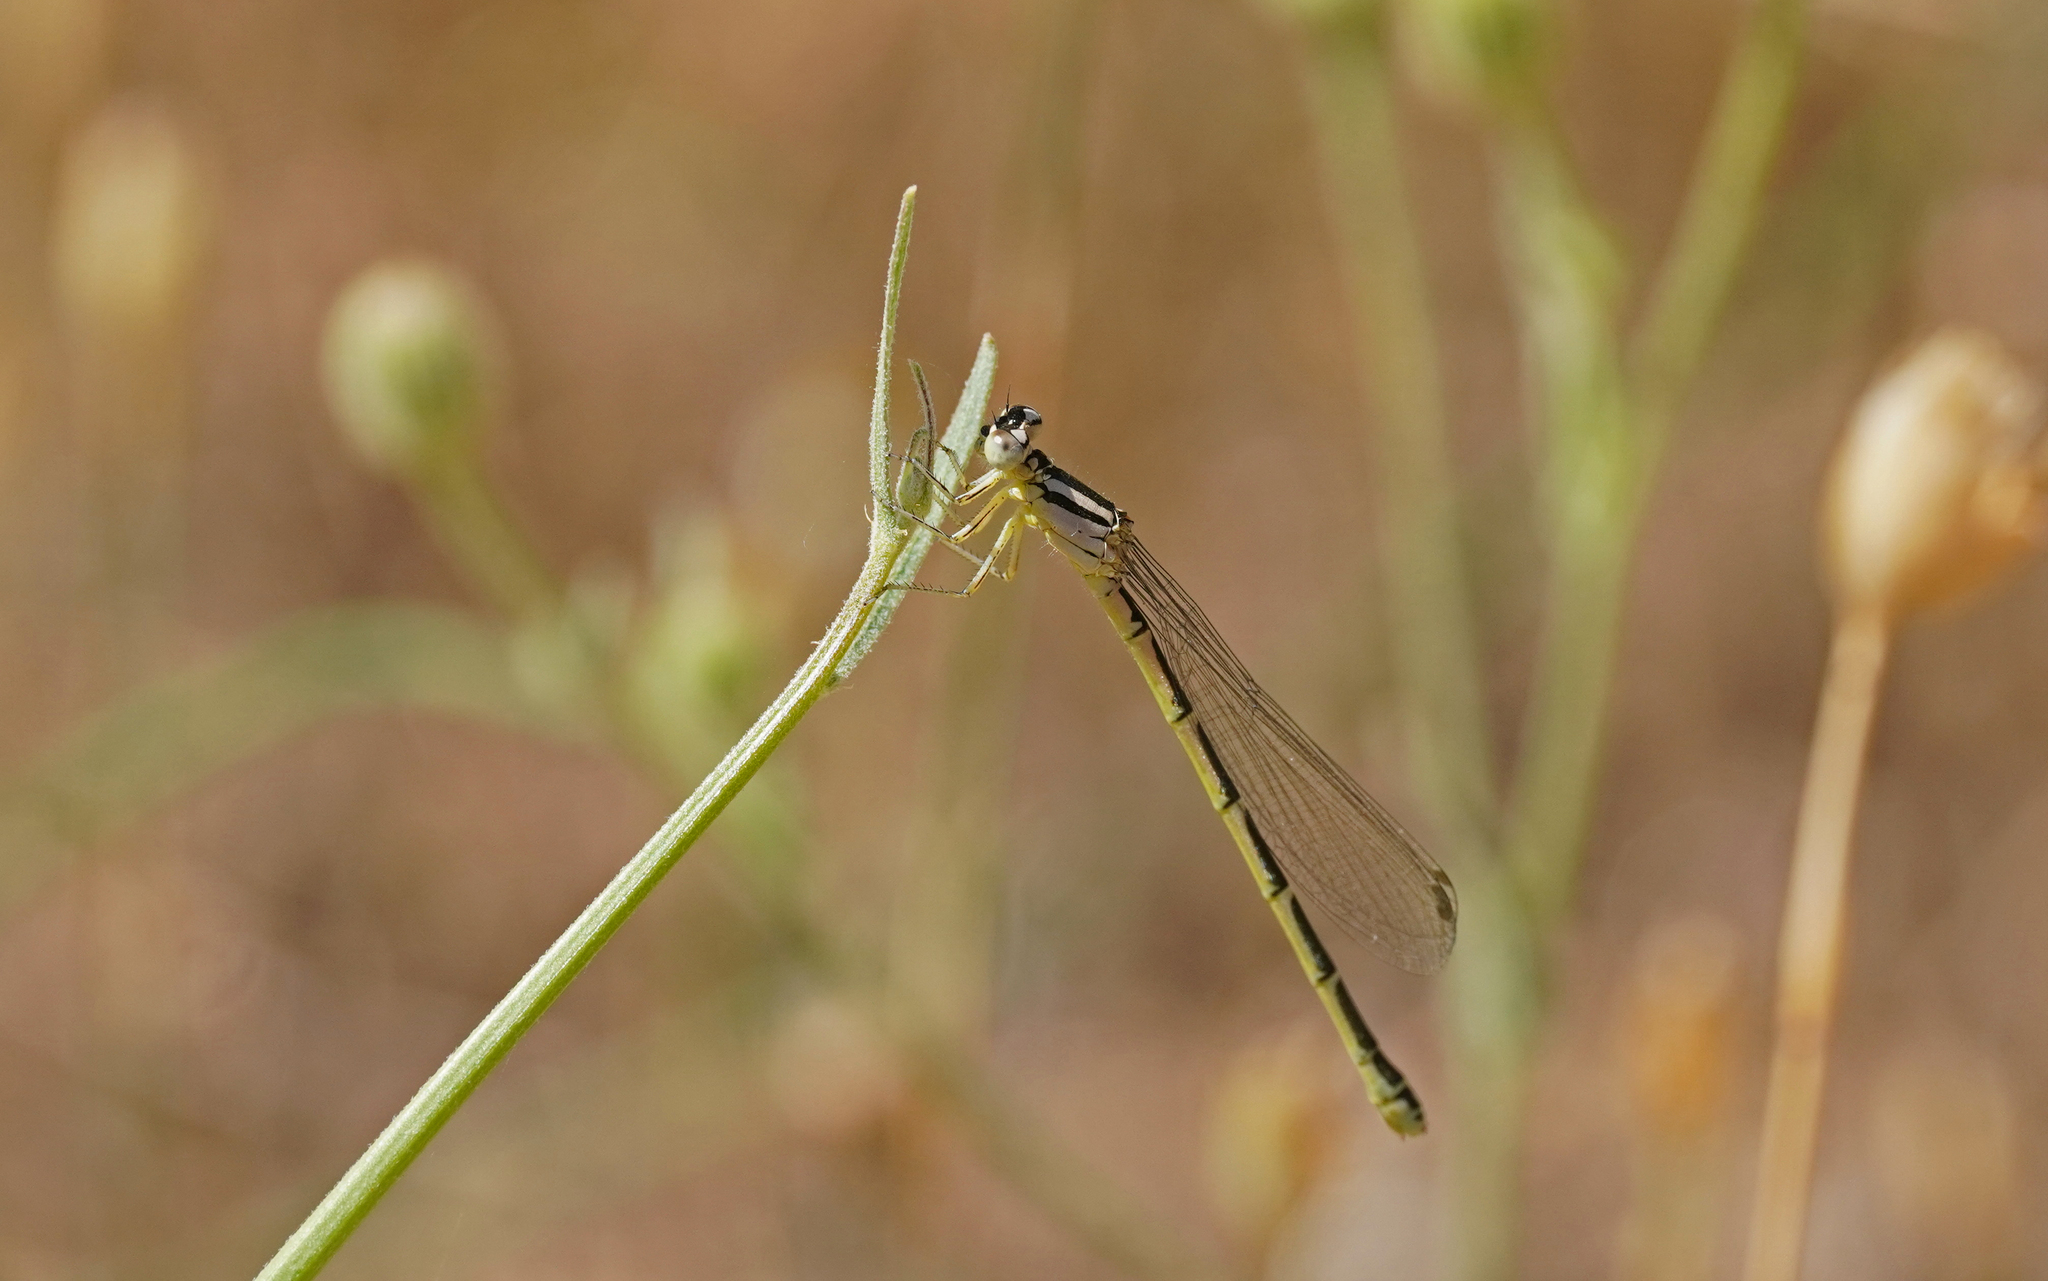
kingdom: Animalia
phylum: Arthropoda
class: Insecta
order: Odonata
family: Coenagrionidae
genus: Coenagrion
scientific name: Coenagrion caerulescens
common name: Mediterranean bluet
